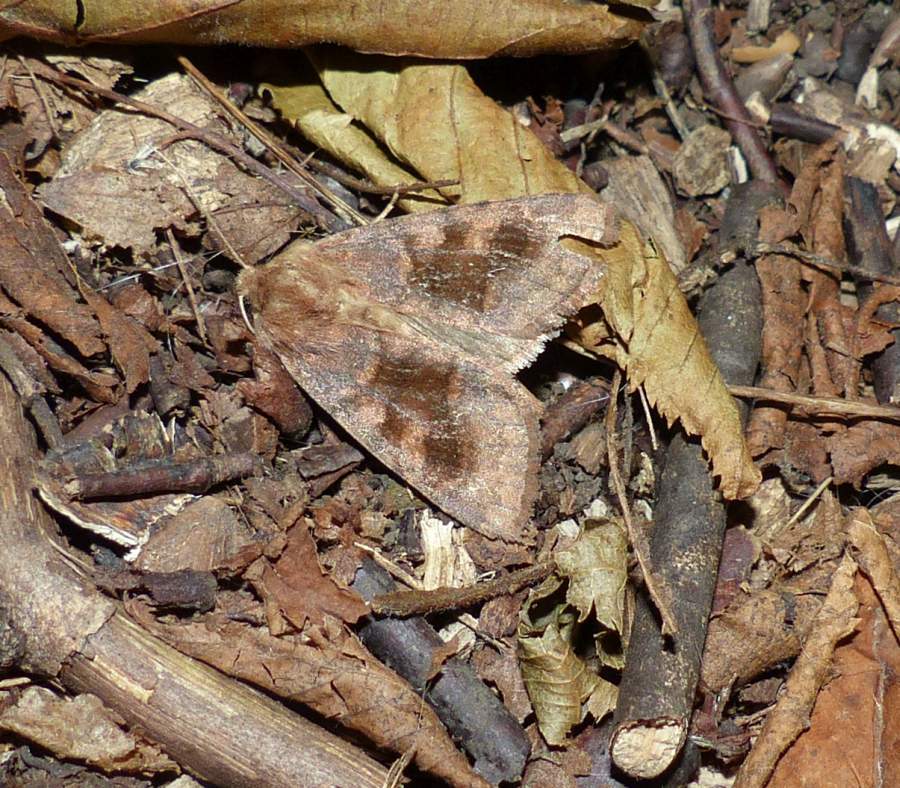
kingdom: Animalia
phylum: Arthropoda
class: Insecta
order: Lepidoptera
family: Noctuidae
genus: Nephelodes
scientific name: Nephelodes minians
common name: Bronzed cutworm
